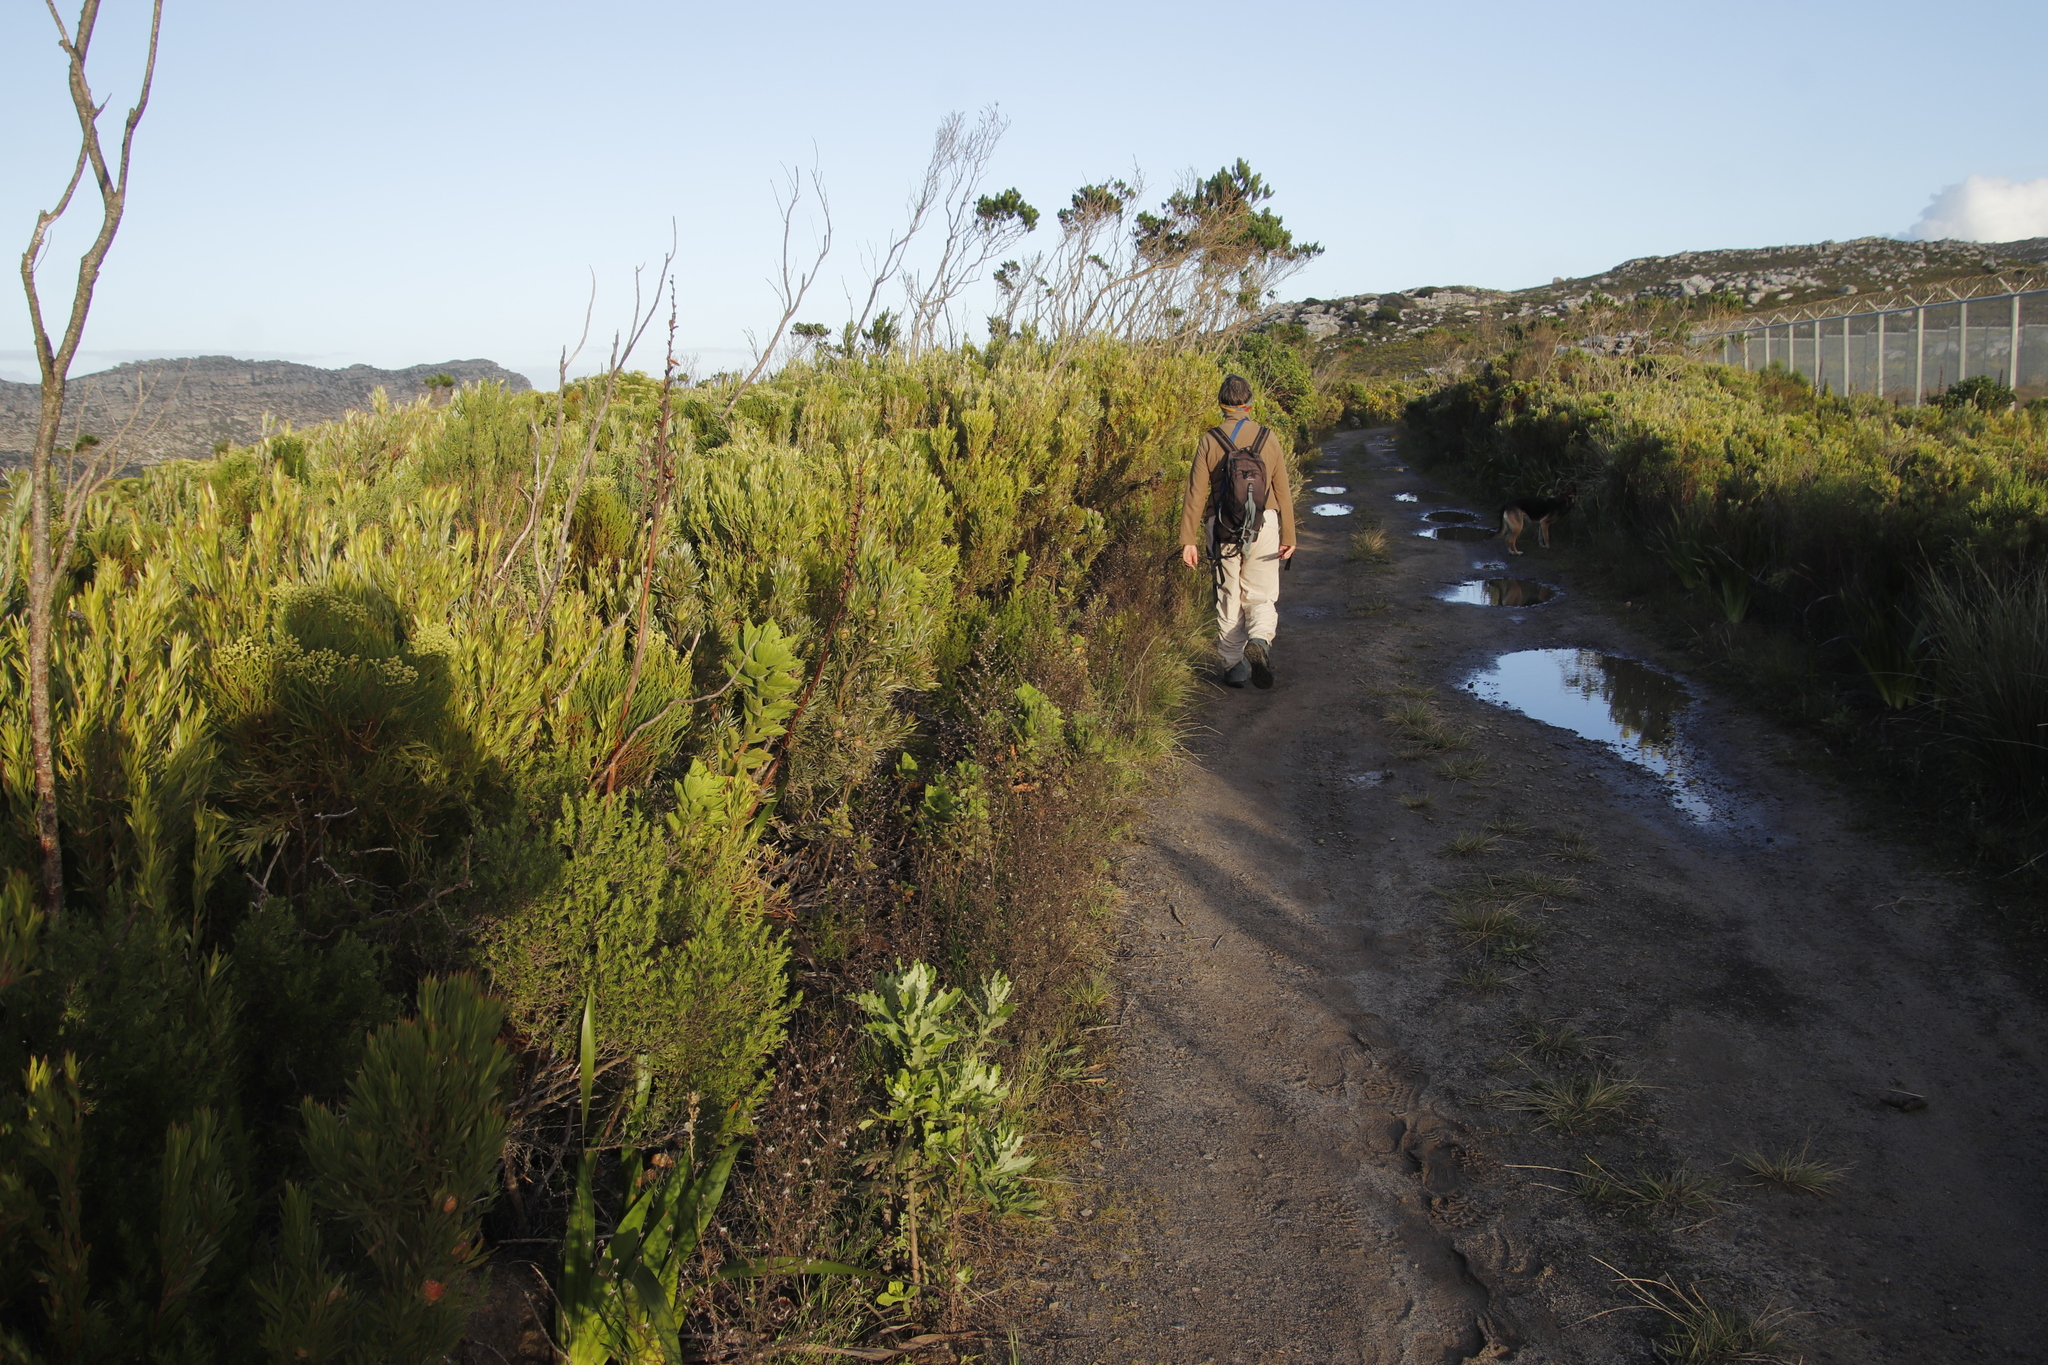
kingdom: Plantae
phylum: Tracheophyta
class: Magnoliopsida
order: Proteales
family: Proteaceae
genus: Leucadendron
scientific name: Leucadendron xanthoconus
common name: Sickle-leaf conebush
